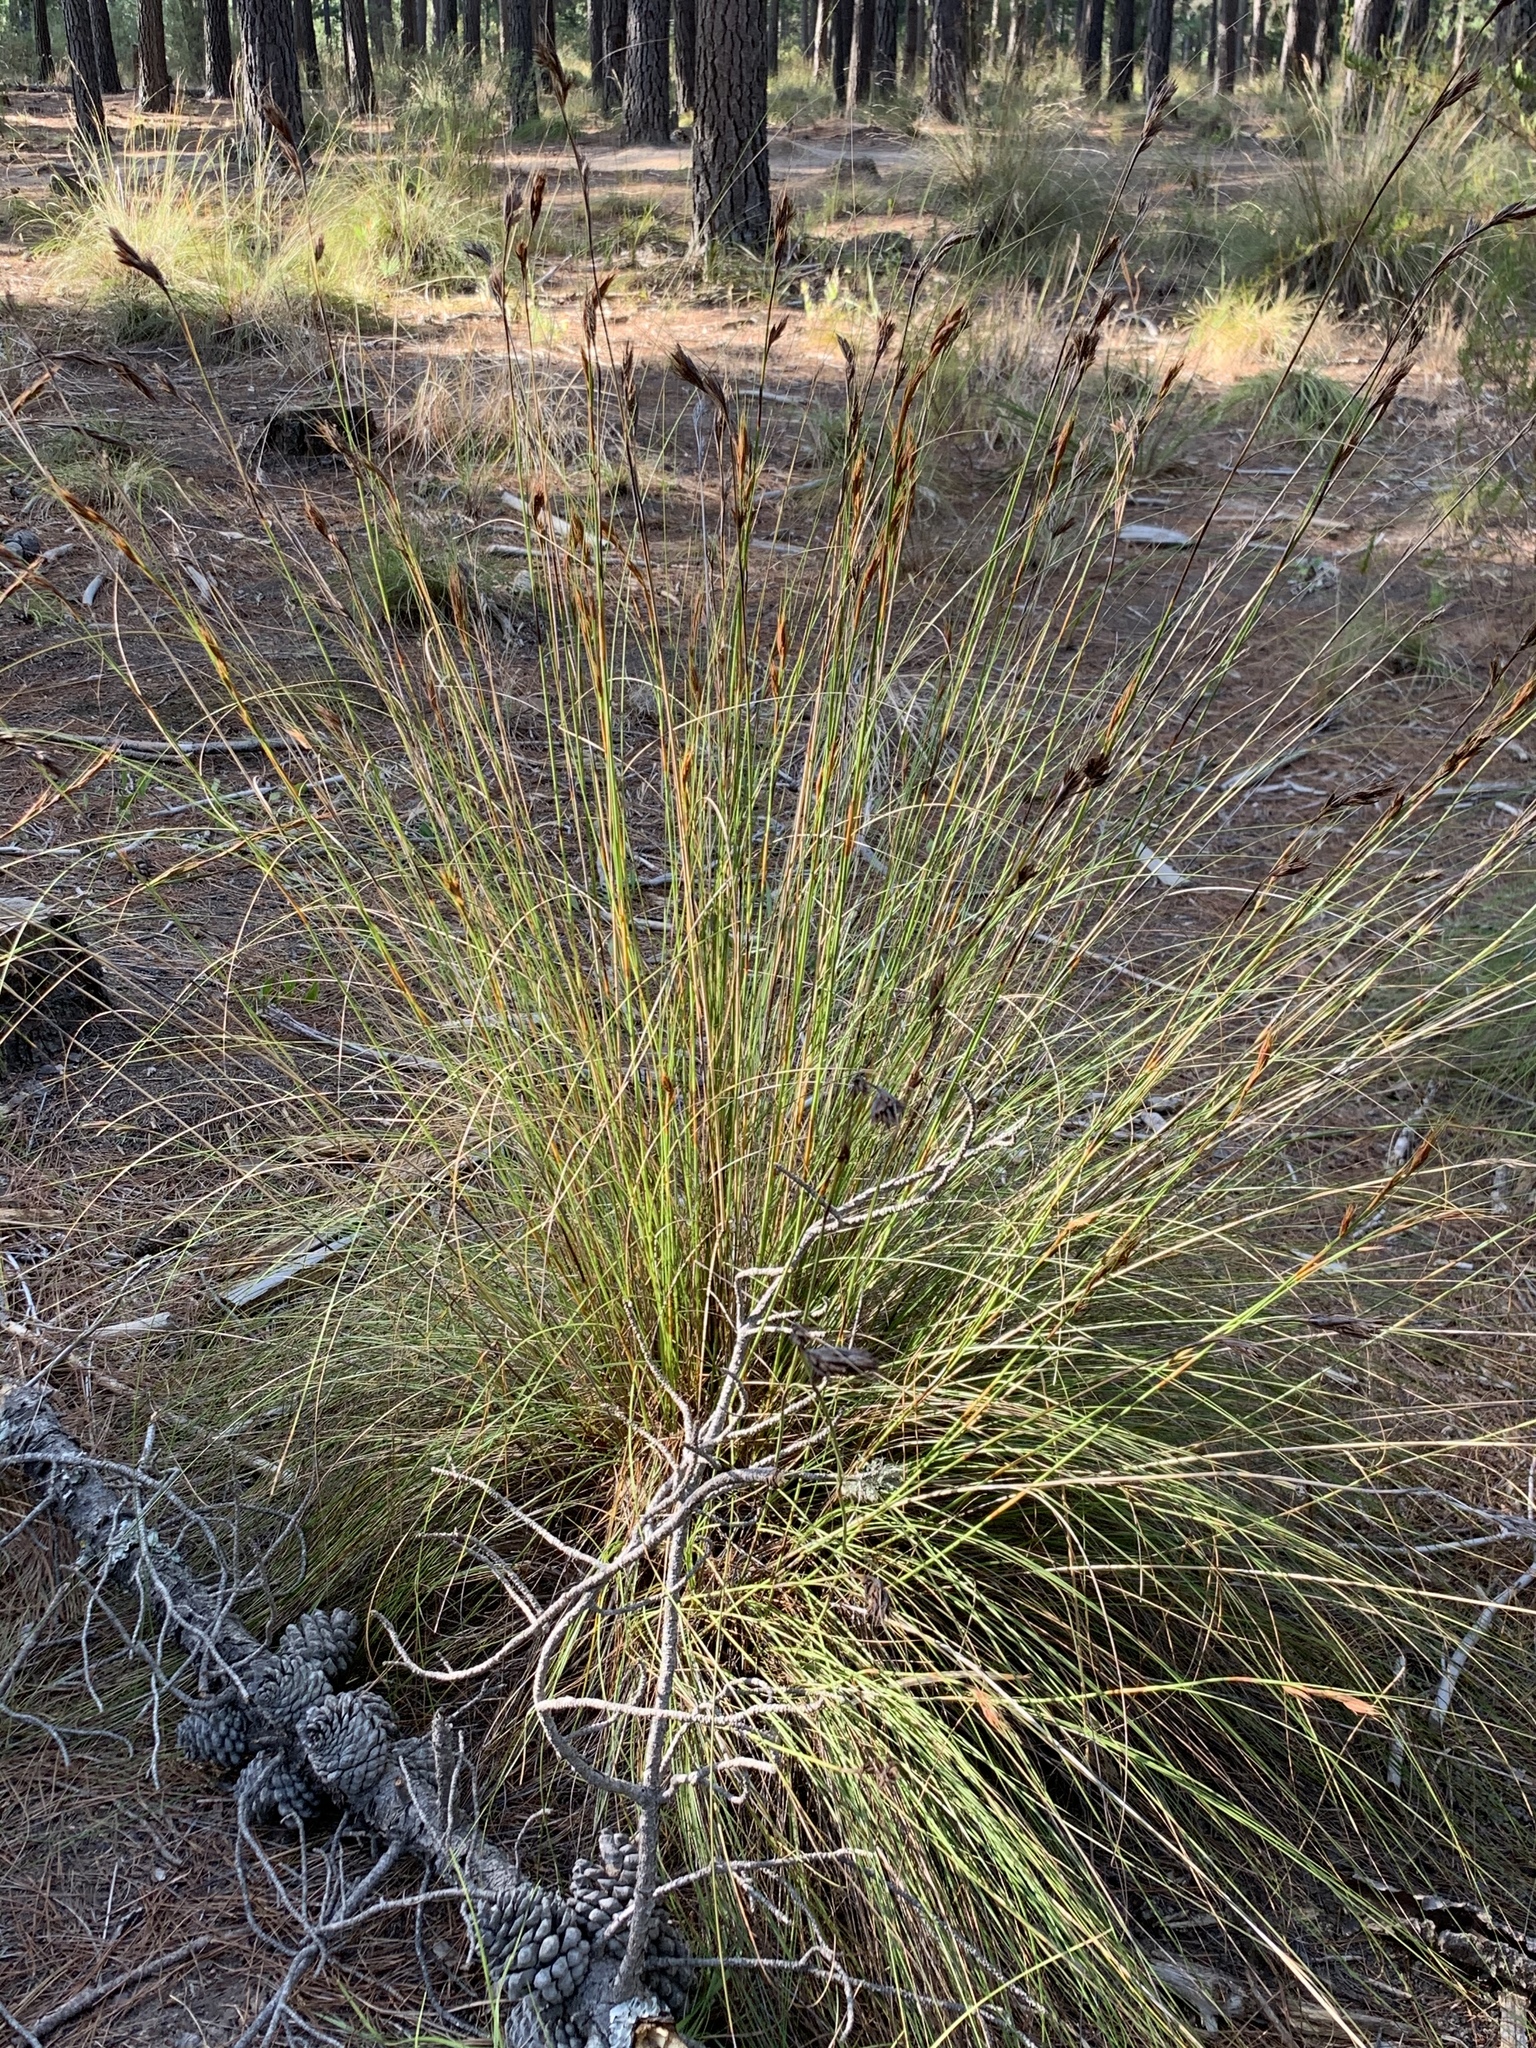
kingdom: Plantae
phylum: Tracheophyta
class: Liliopsida
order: Poales
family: Cyperaceae
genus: Tetraria
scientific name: Tetraria ustulata
